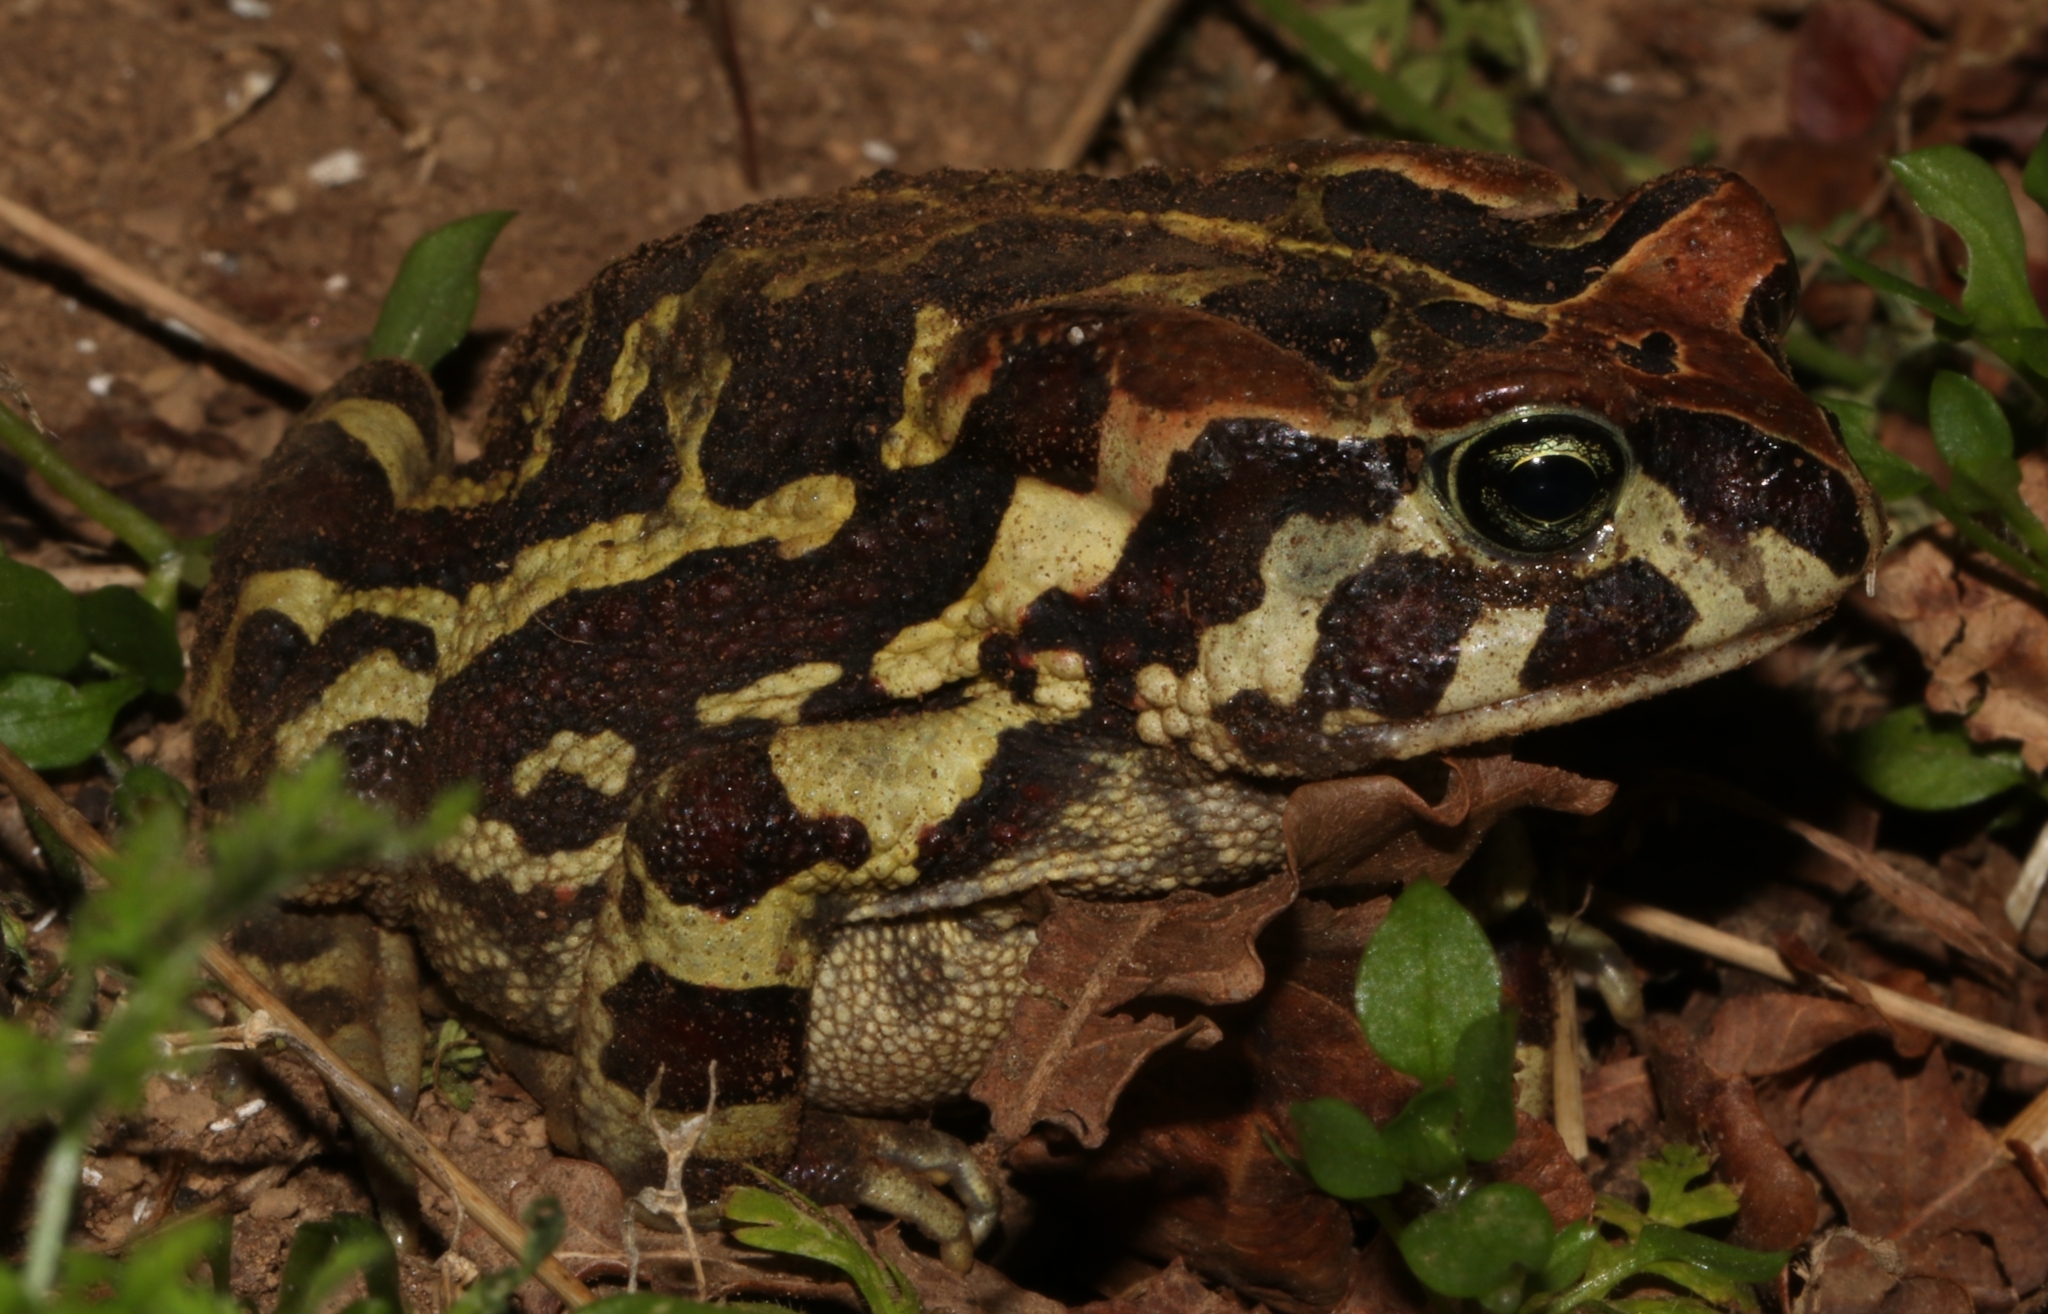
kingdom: Animalia
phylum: Chordata
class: Amphibia
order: Anura
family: Bufonidae
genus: Sclerophrys
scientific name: Sclerophrys pantherina
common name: Panther toad
